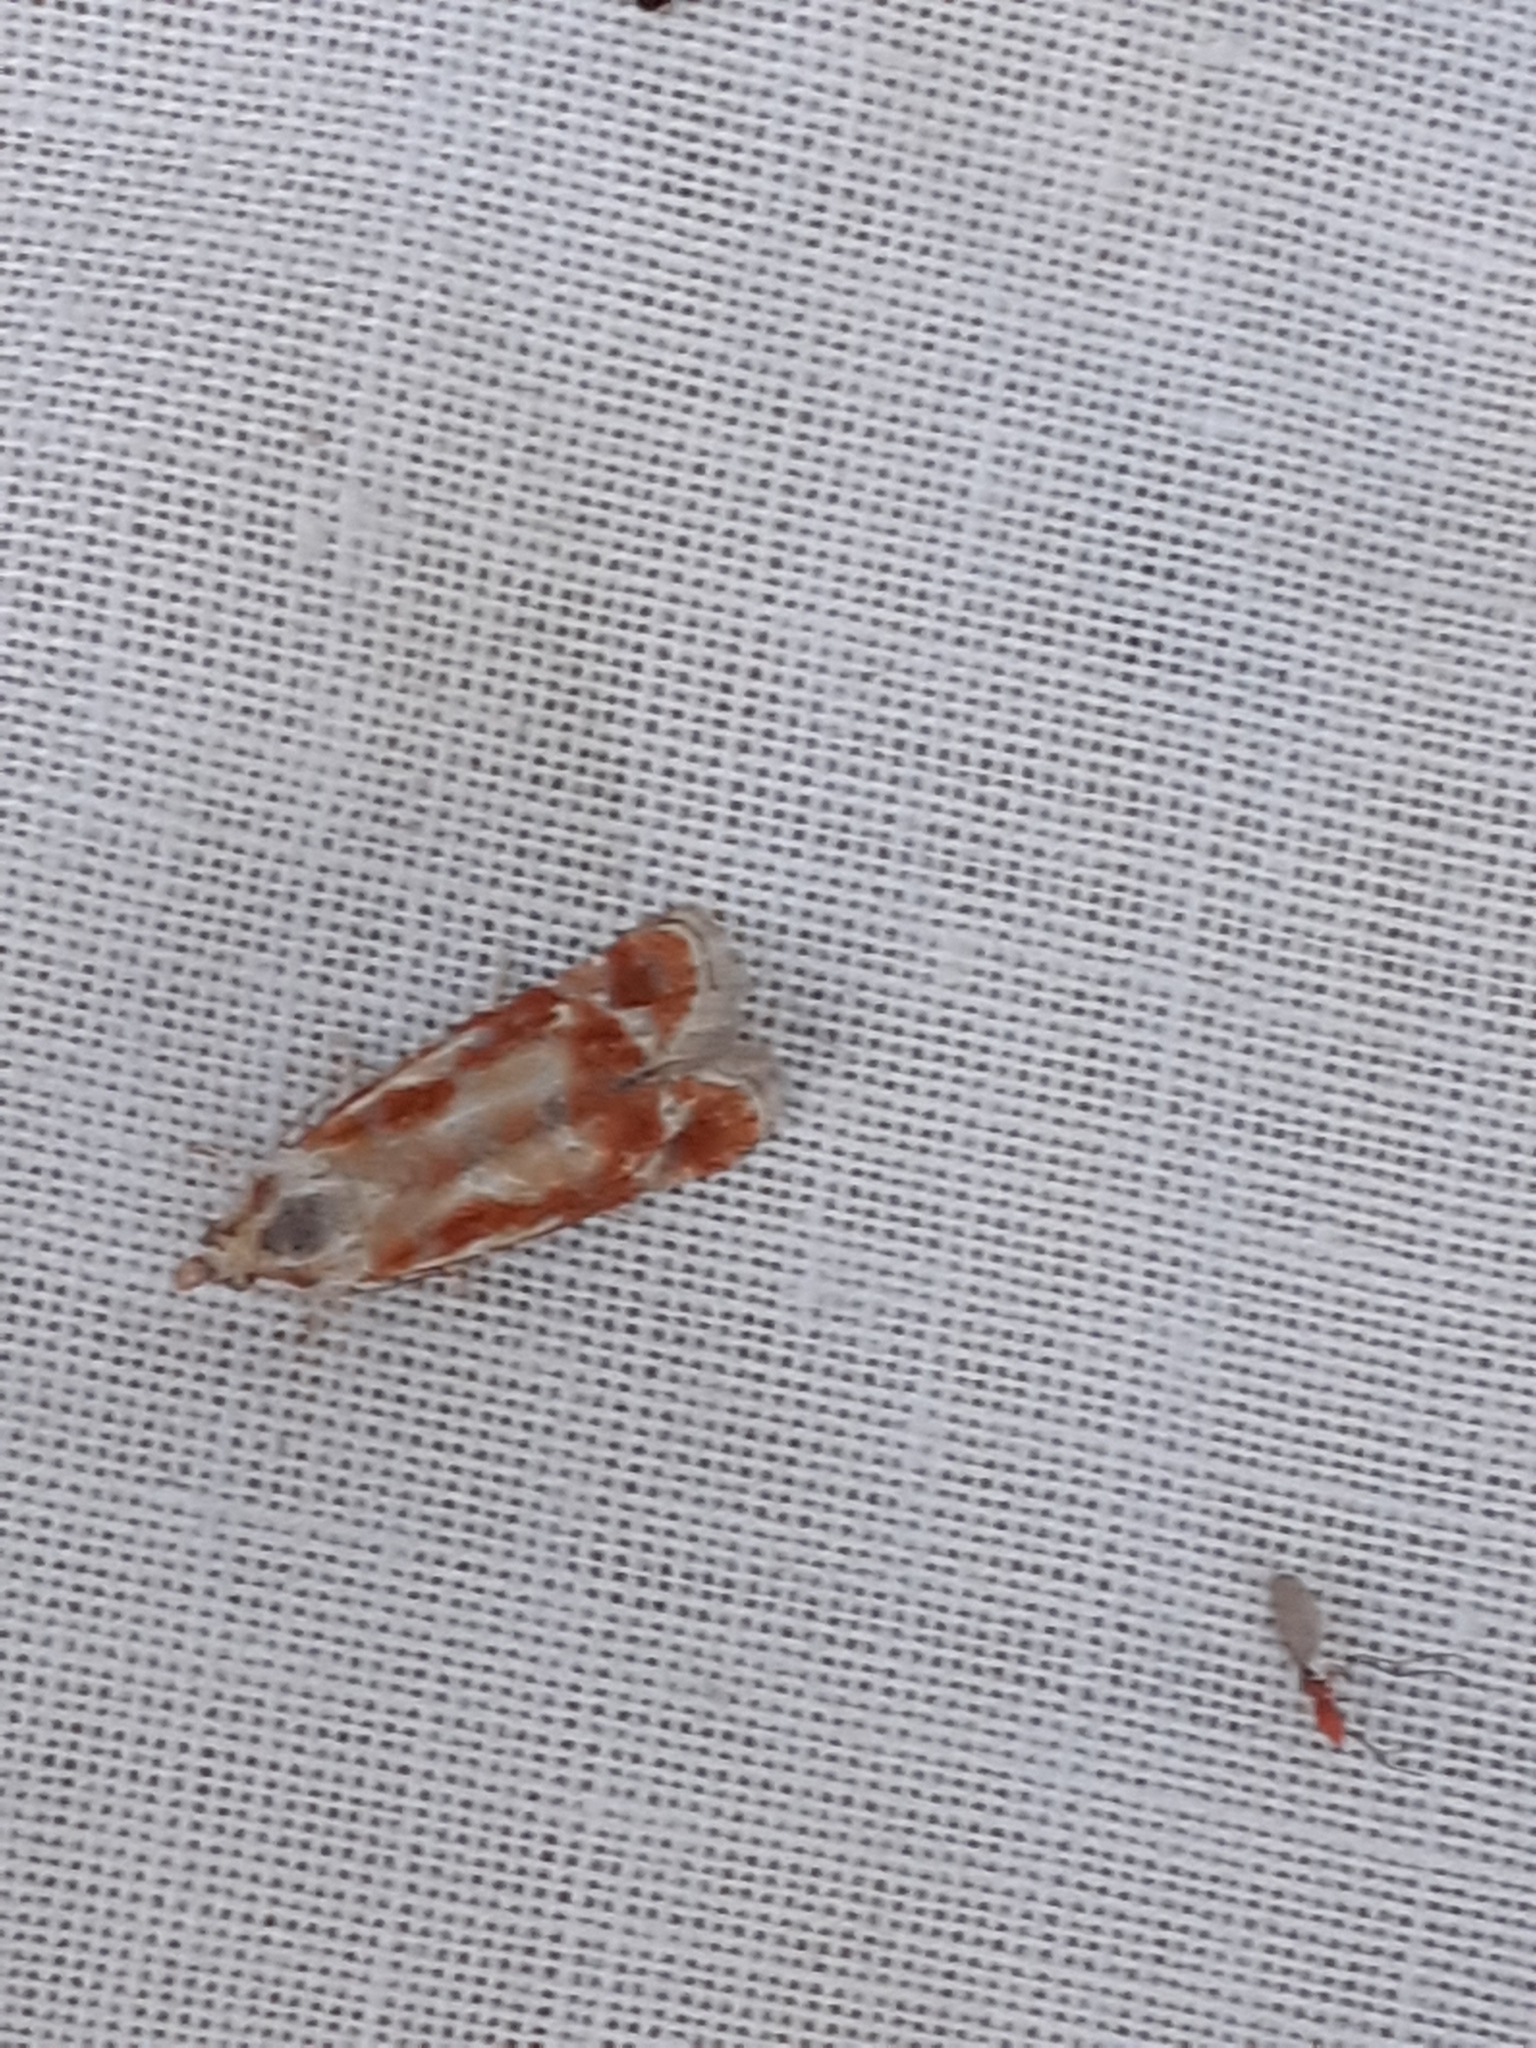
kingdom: Animalia
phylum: Arthropoda
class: Insecta
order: Lepidoptera
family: Tortricidae
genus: Rhyacionia
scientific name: Rhyacionia buoliana
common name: European pine shoot moth
